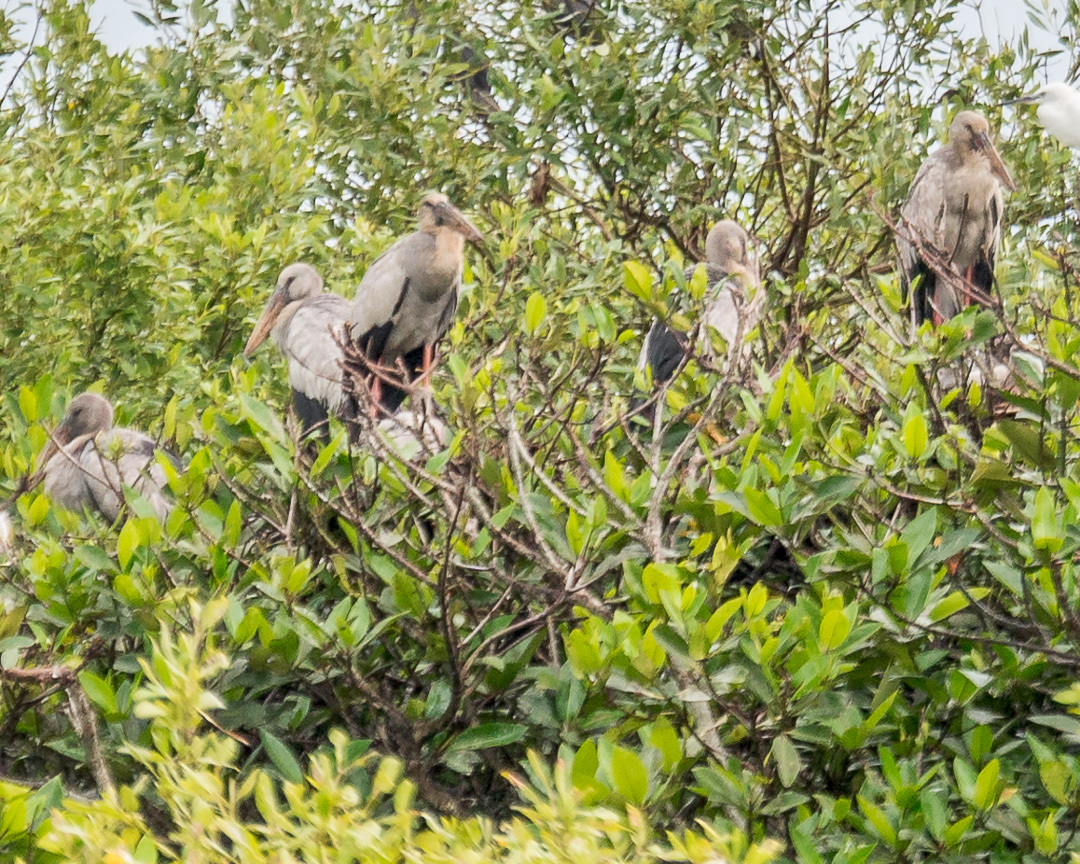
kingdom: Animalia
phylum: Chordata
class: Aves
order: Ciconiiformes
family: Ciconiidae
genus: Anastomus
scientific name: Anastomus oscitans
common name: Asian openbill
